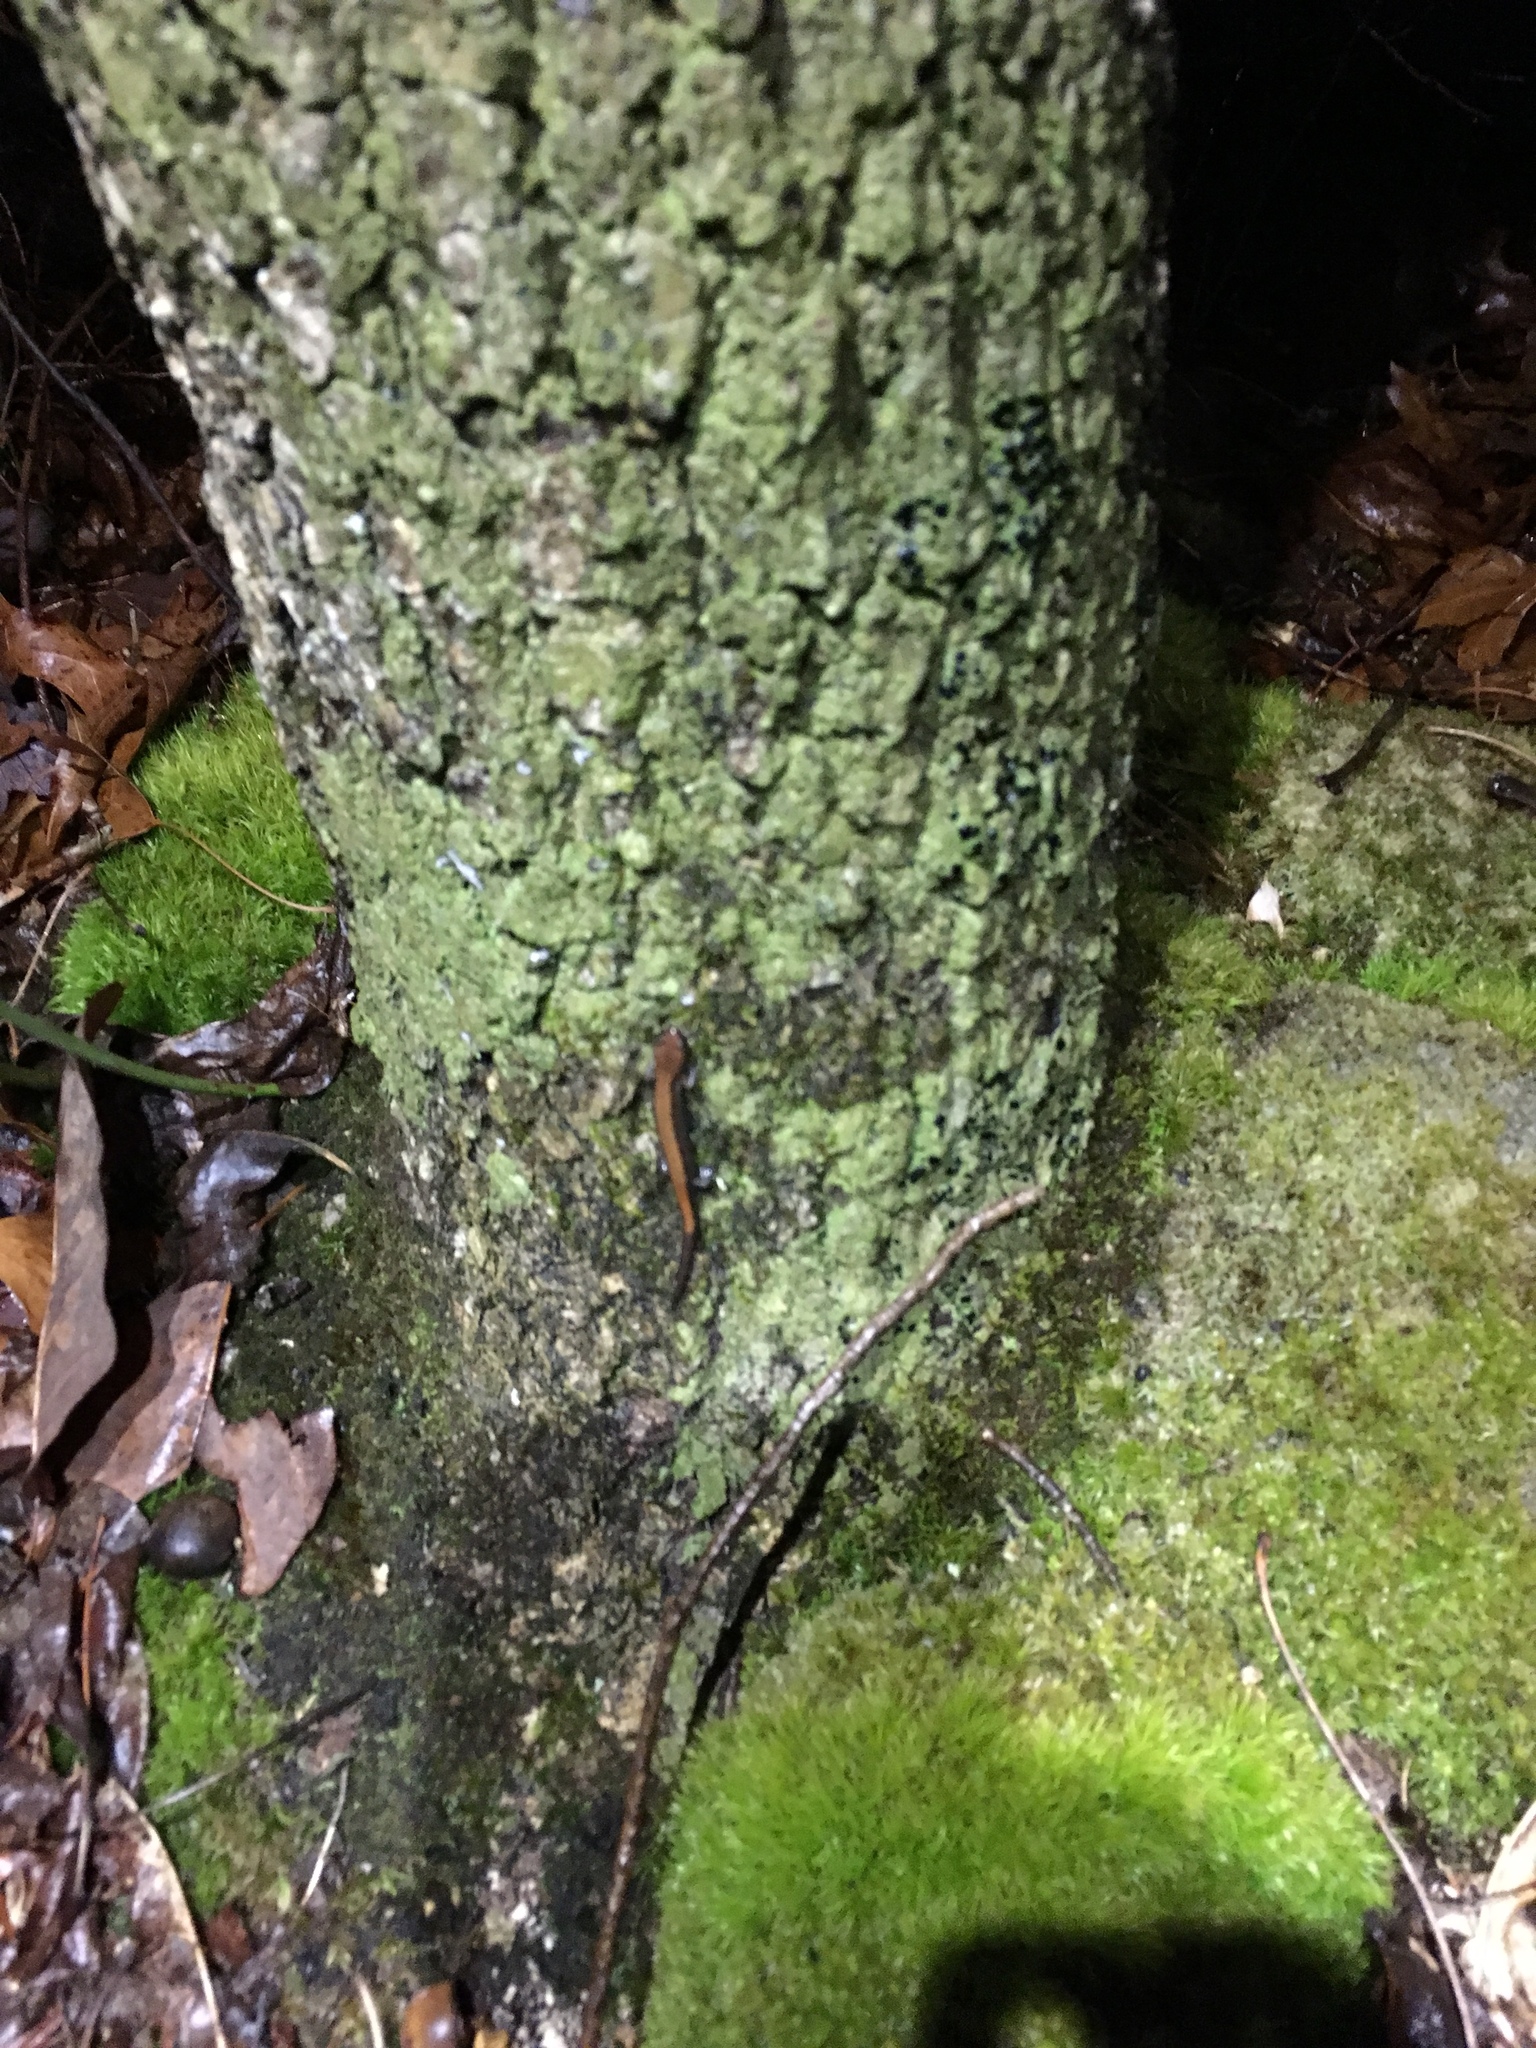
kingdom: Animalia
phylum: Chordata
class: Amphibia
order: Caudata
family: Plethodontidae
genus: Plethodon
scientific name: Plethodon sherando
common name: Big levels salamander
